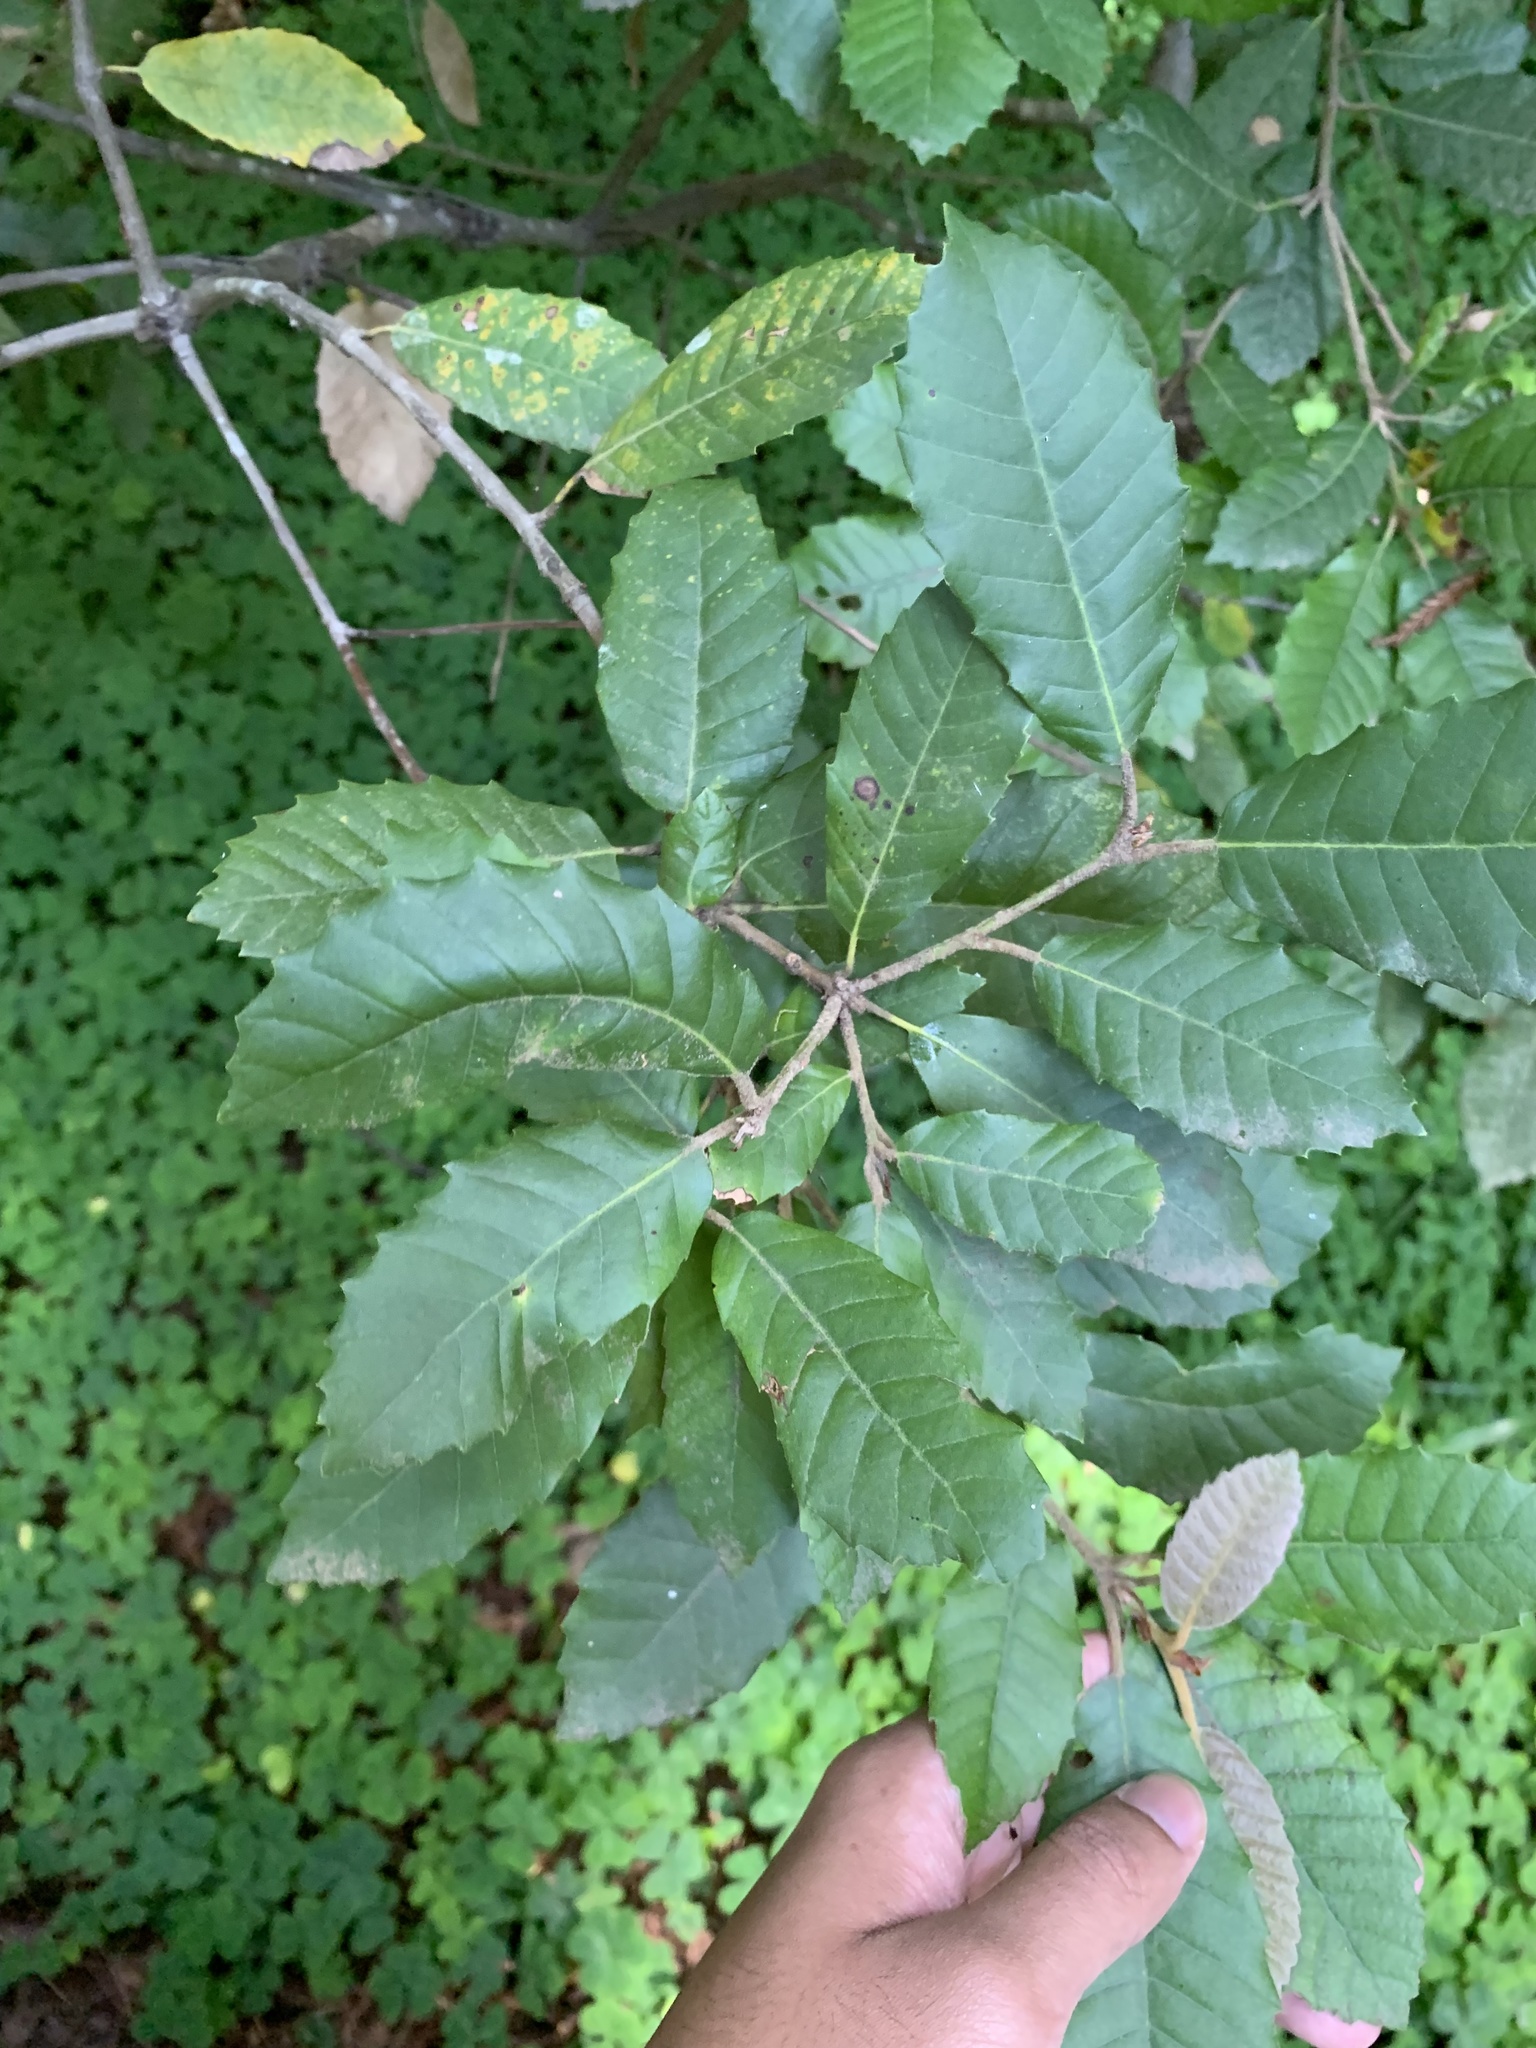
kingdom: Plantae
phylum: Tracheophyta
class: Magnoliopsida
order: Fagales
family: Fagaceae
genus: Notholithocarpus
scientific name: Notholithocarpus densiflorus
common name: Tan bark oak
